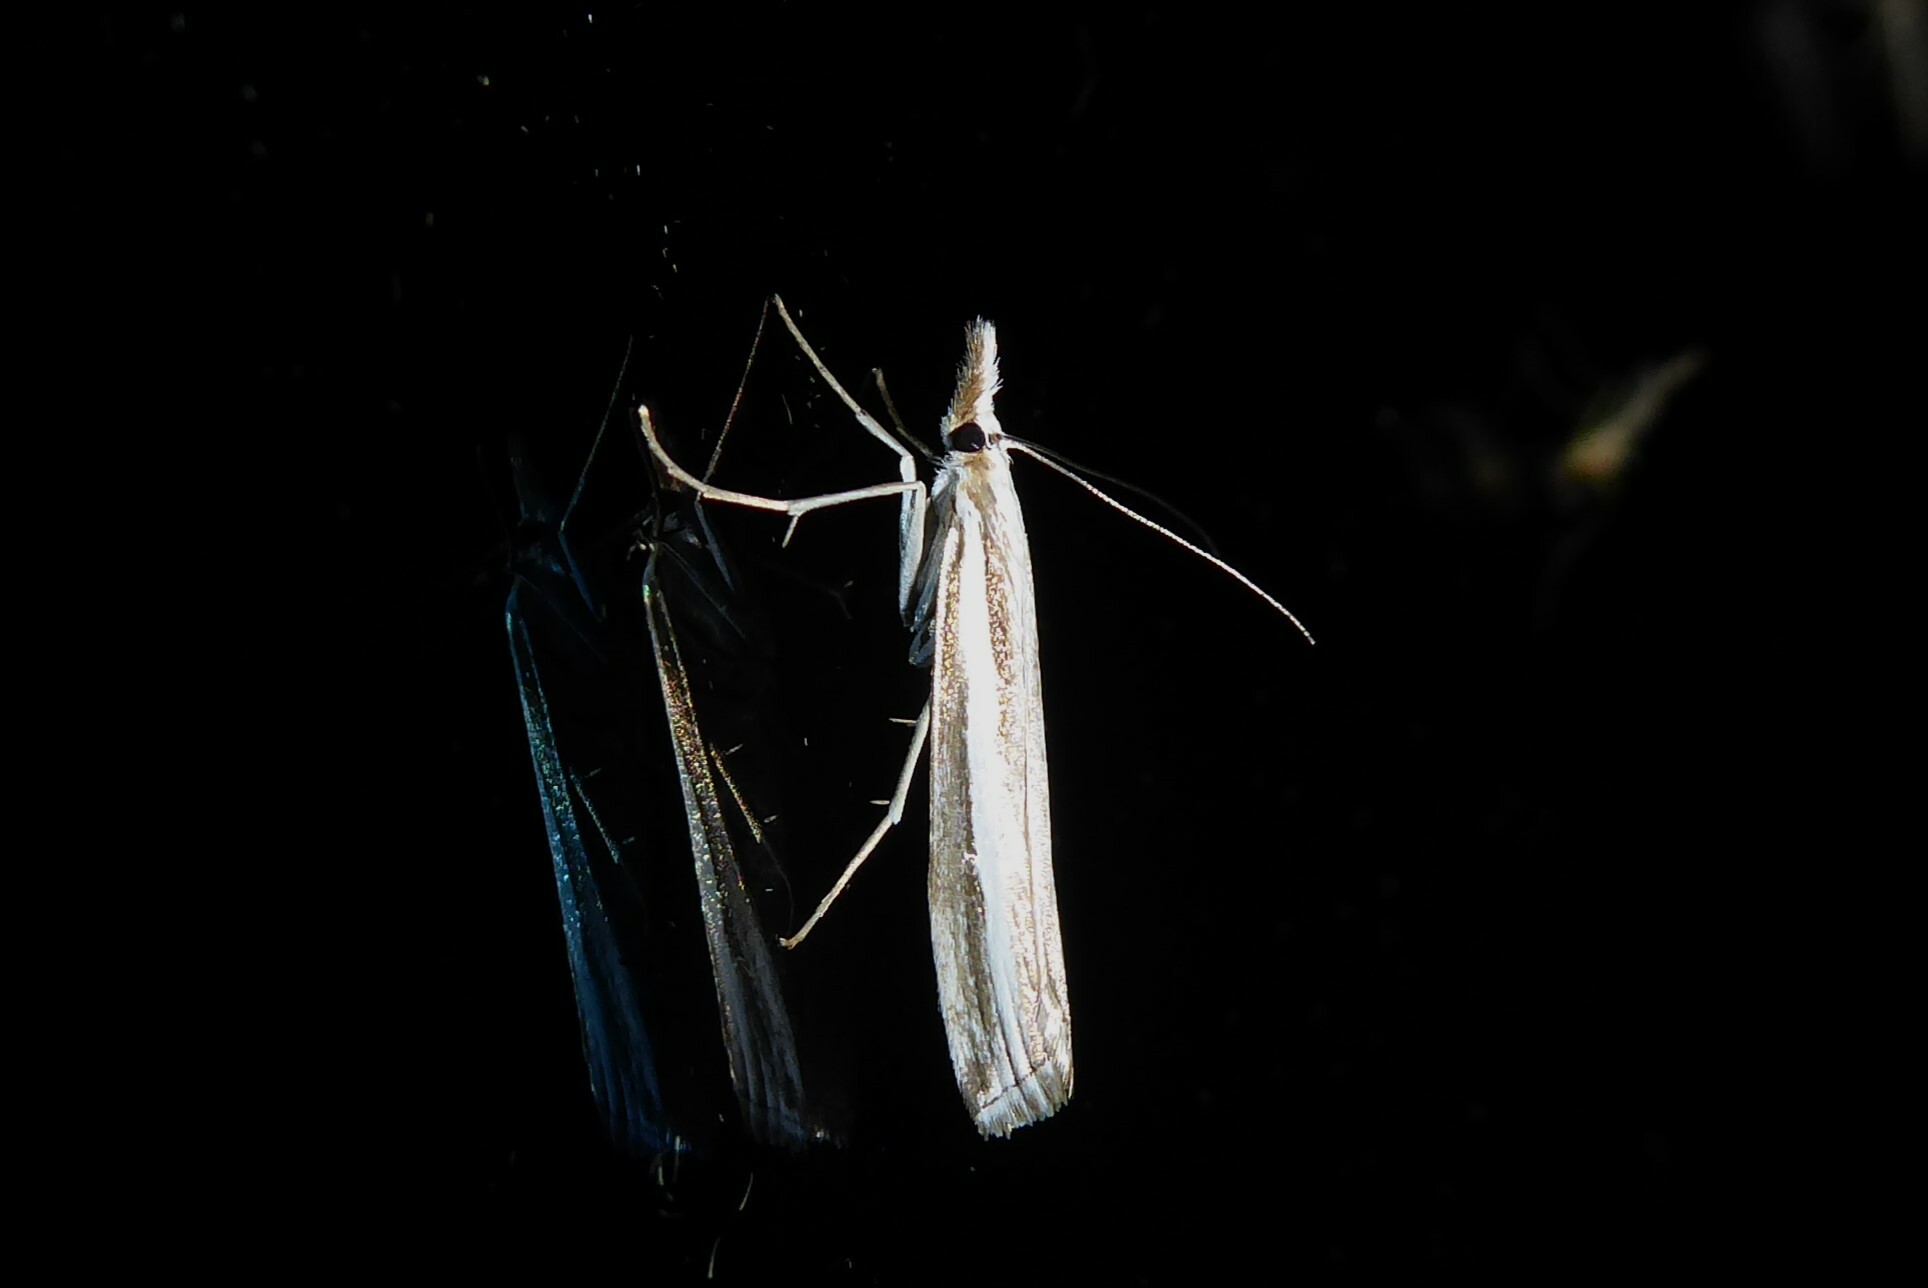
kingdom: Animalia
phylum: Arthropoda
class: Insecta
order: Lepidoptera
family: Crambidae
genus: Orocrambus
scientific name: Orocrambus vittellus
